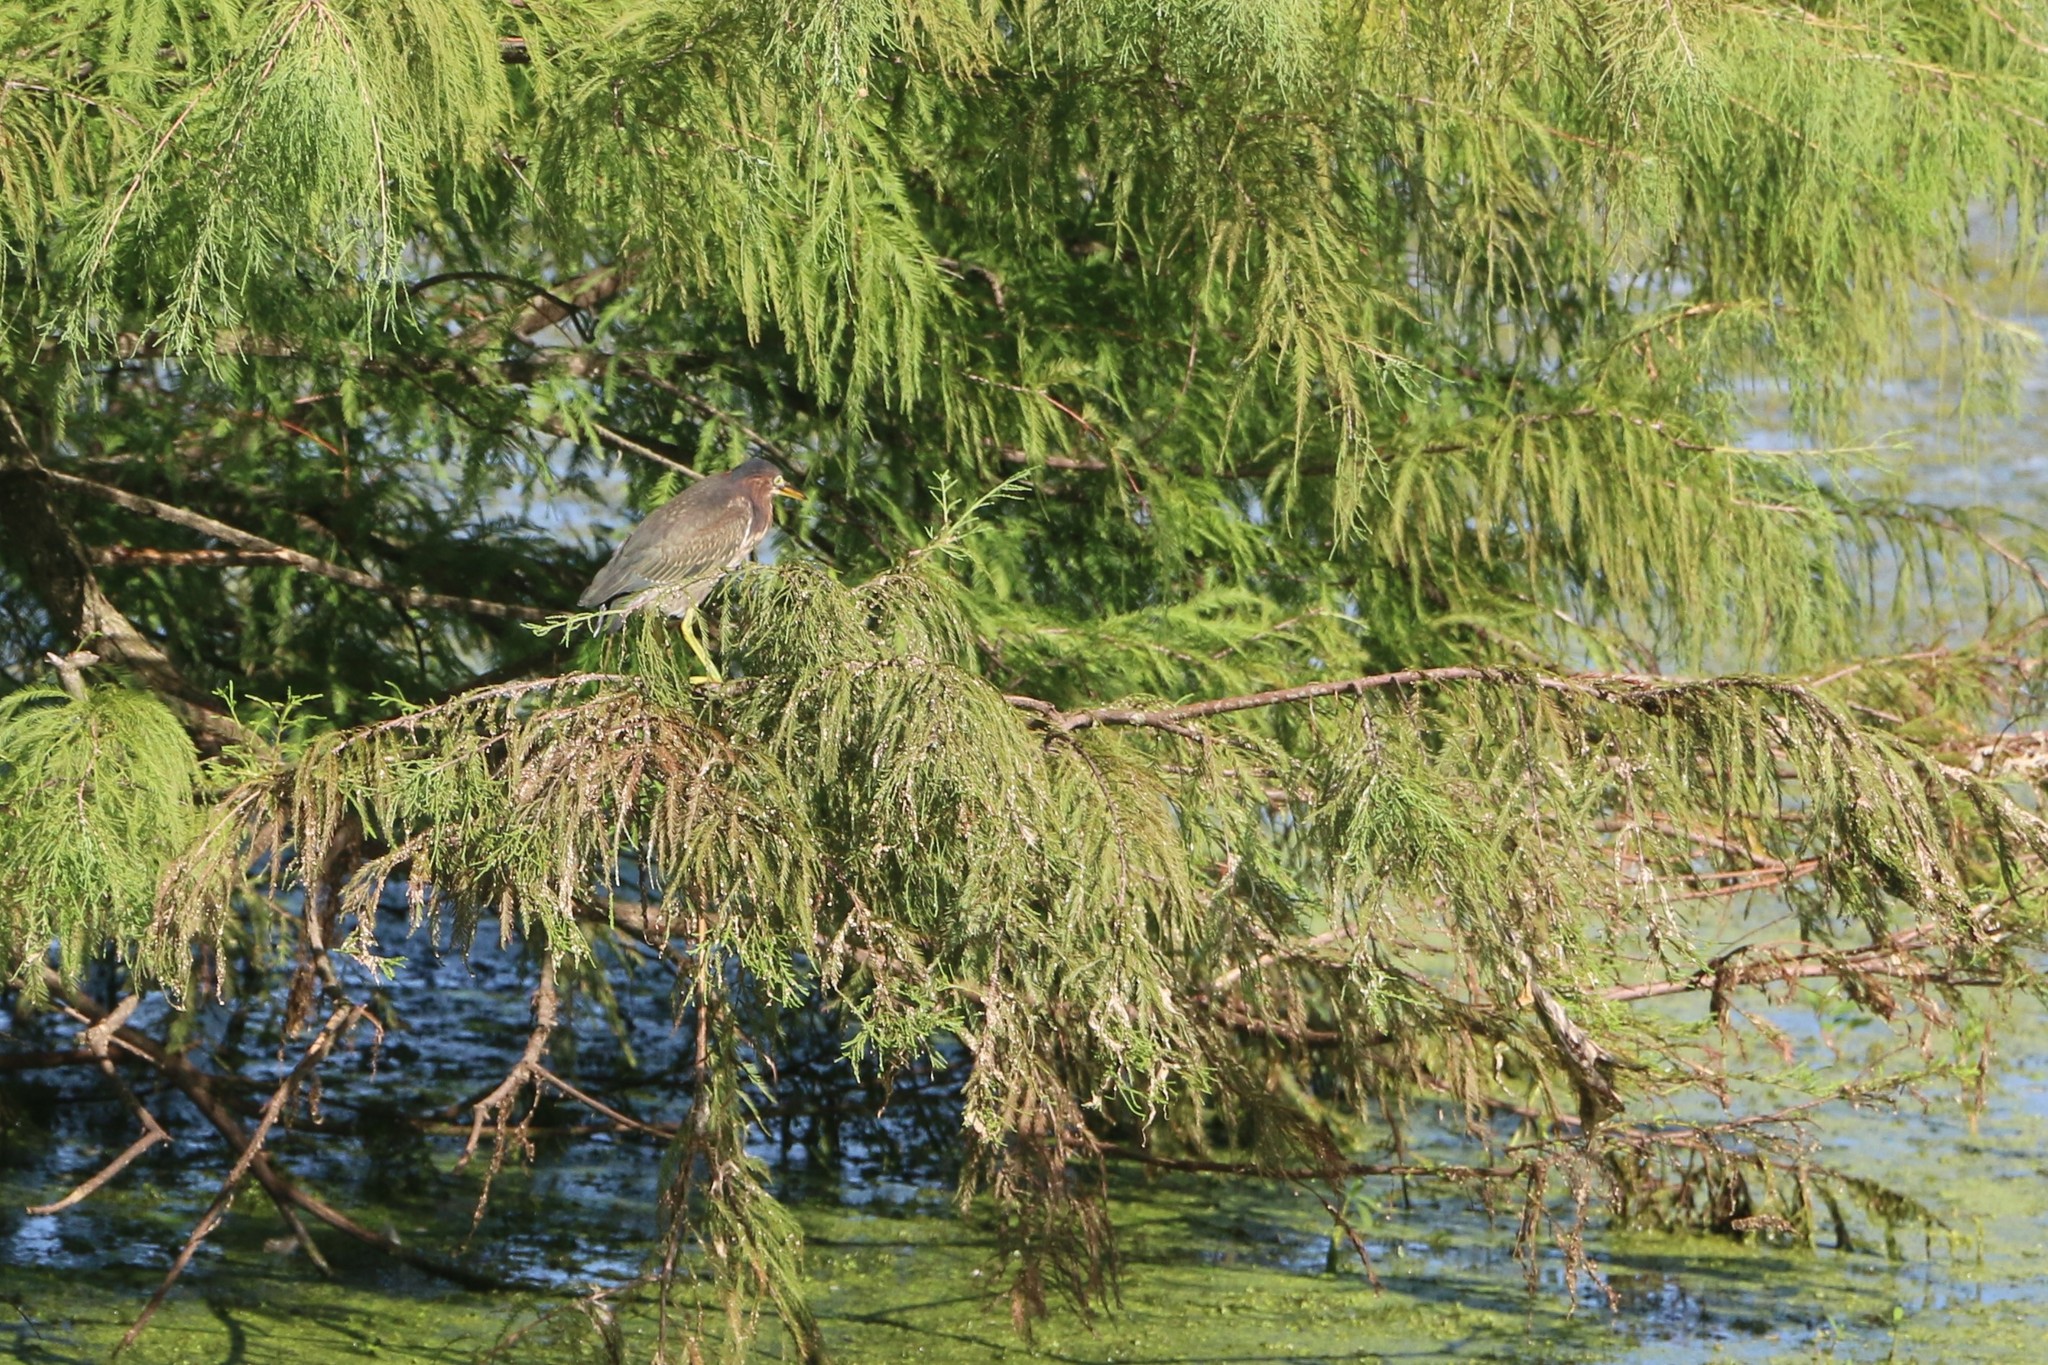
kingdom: Animalia
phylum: Chordata
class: Aves
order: Pelecaniformes
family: Ardeidae
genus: Butorides
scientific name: Butorides virescens
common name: Green heron
